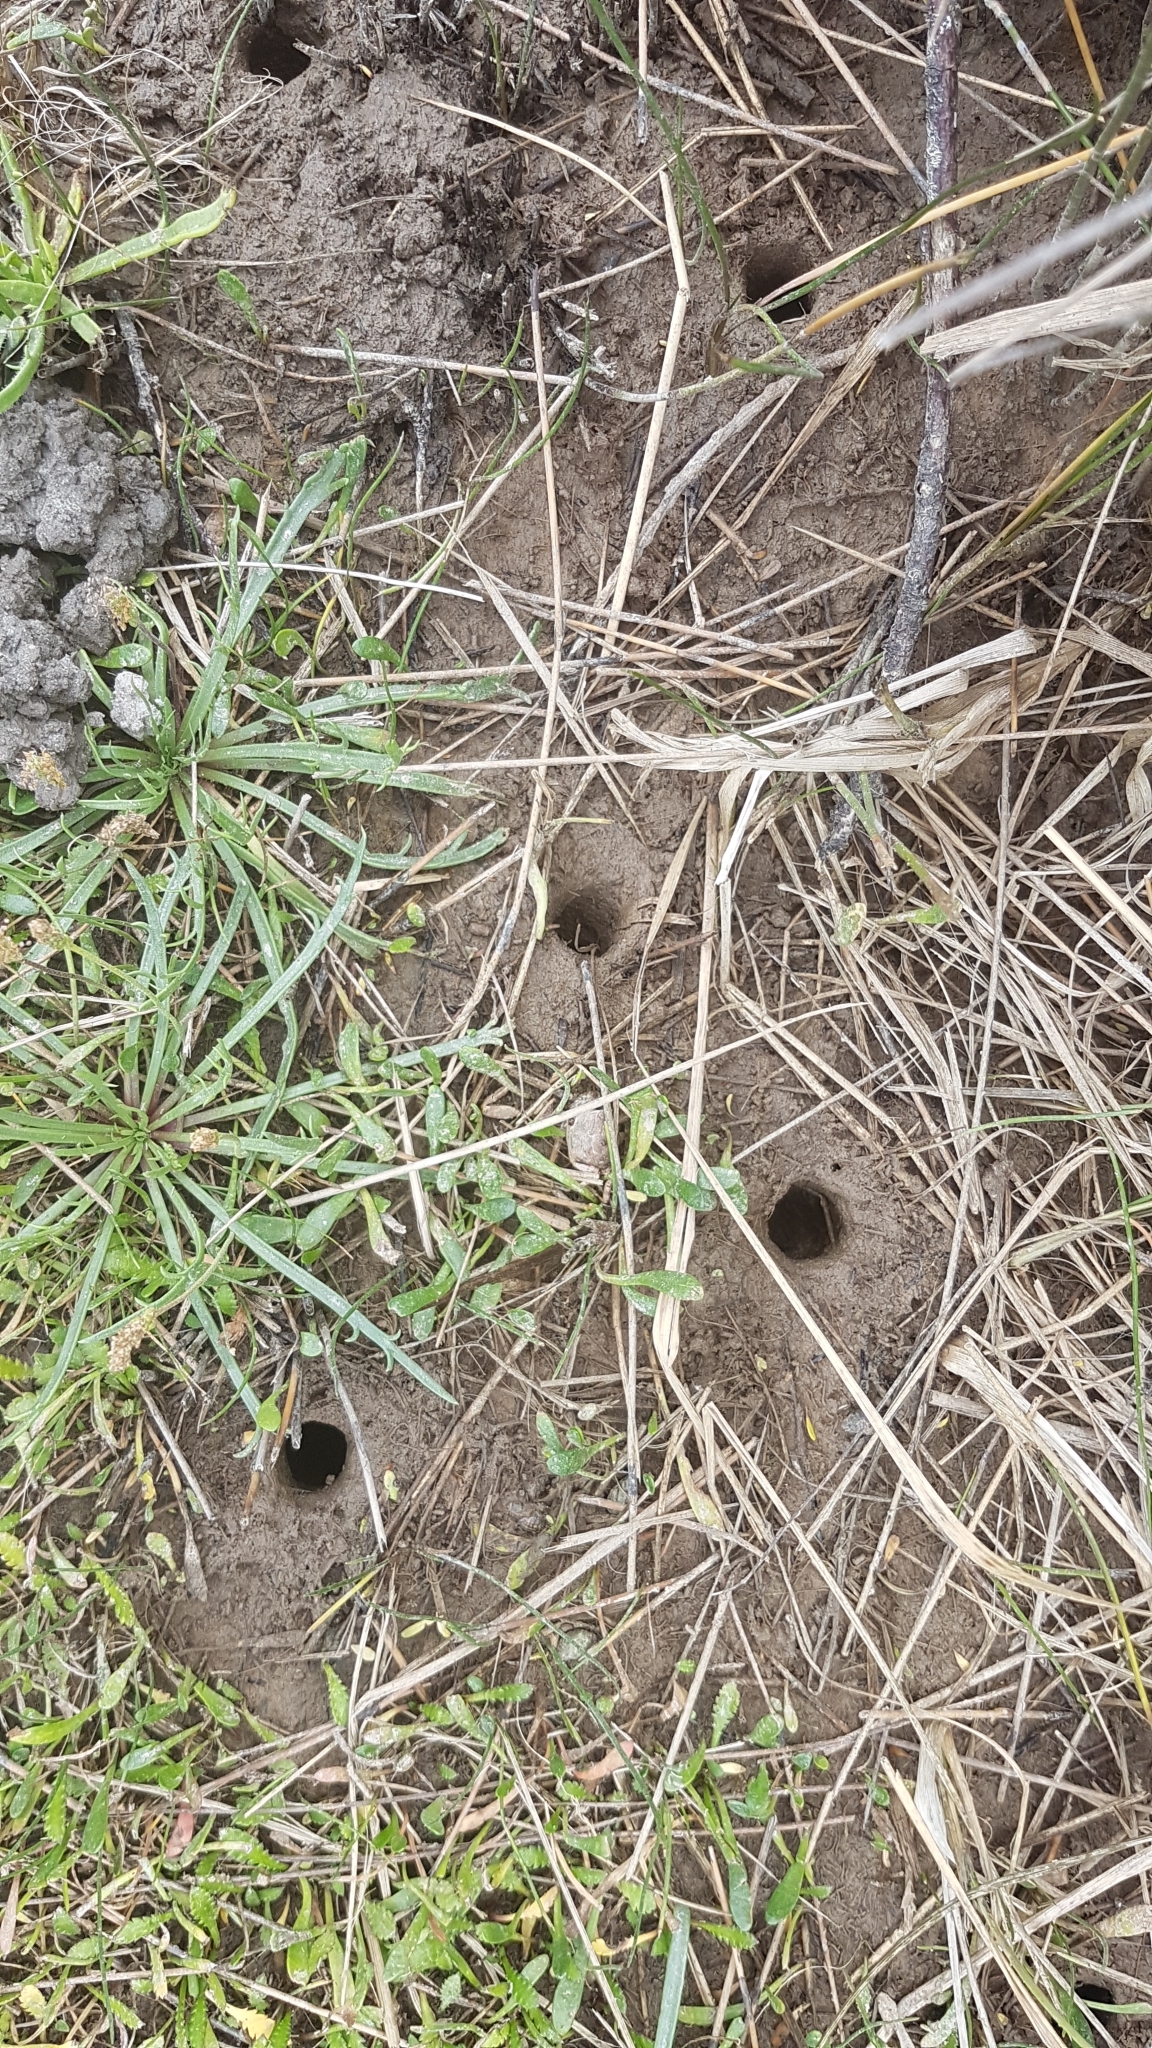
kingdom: Animalia
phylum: Arthropoda
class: Malacostraca
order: Decapoda
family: Varunidae
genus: Austrohelice
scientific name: Austrohelice crassa
